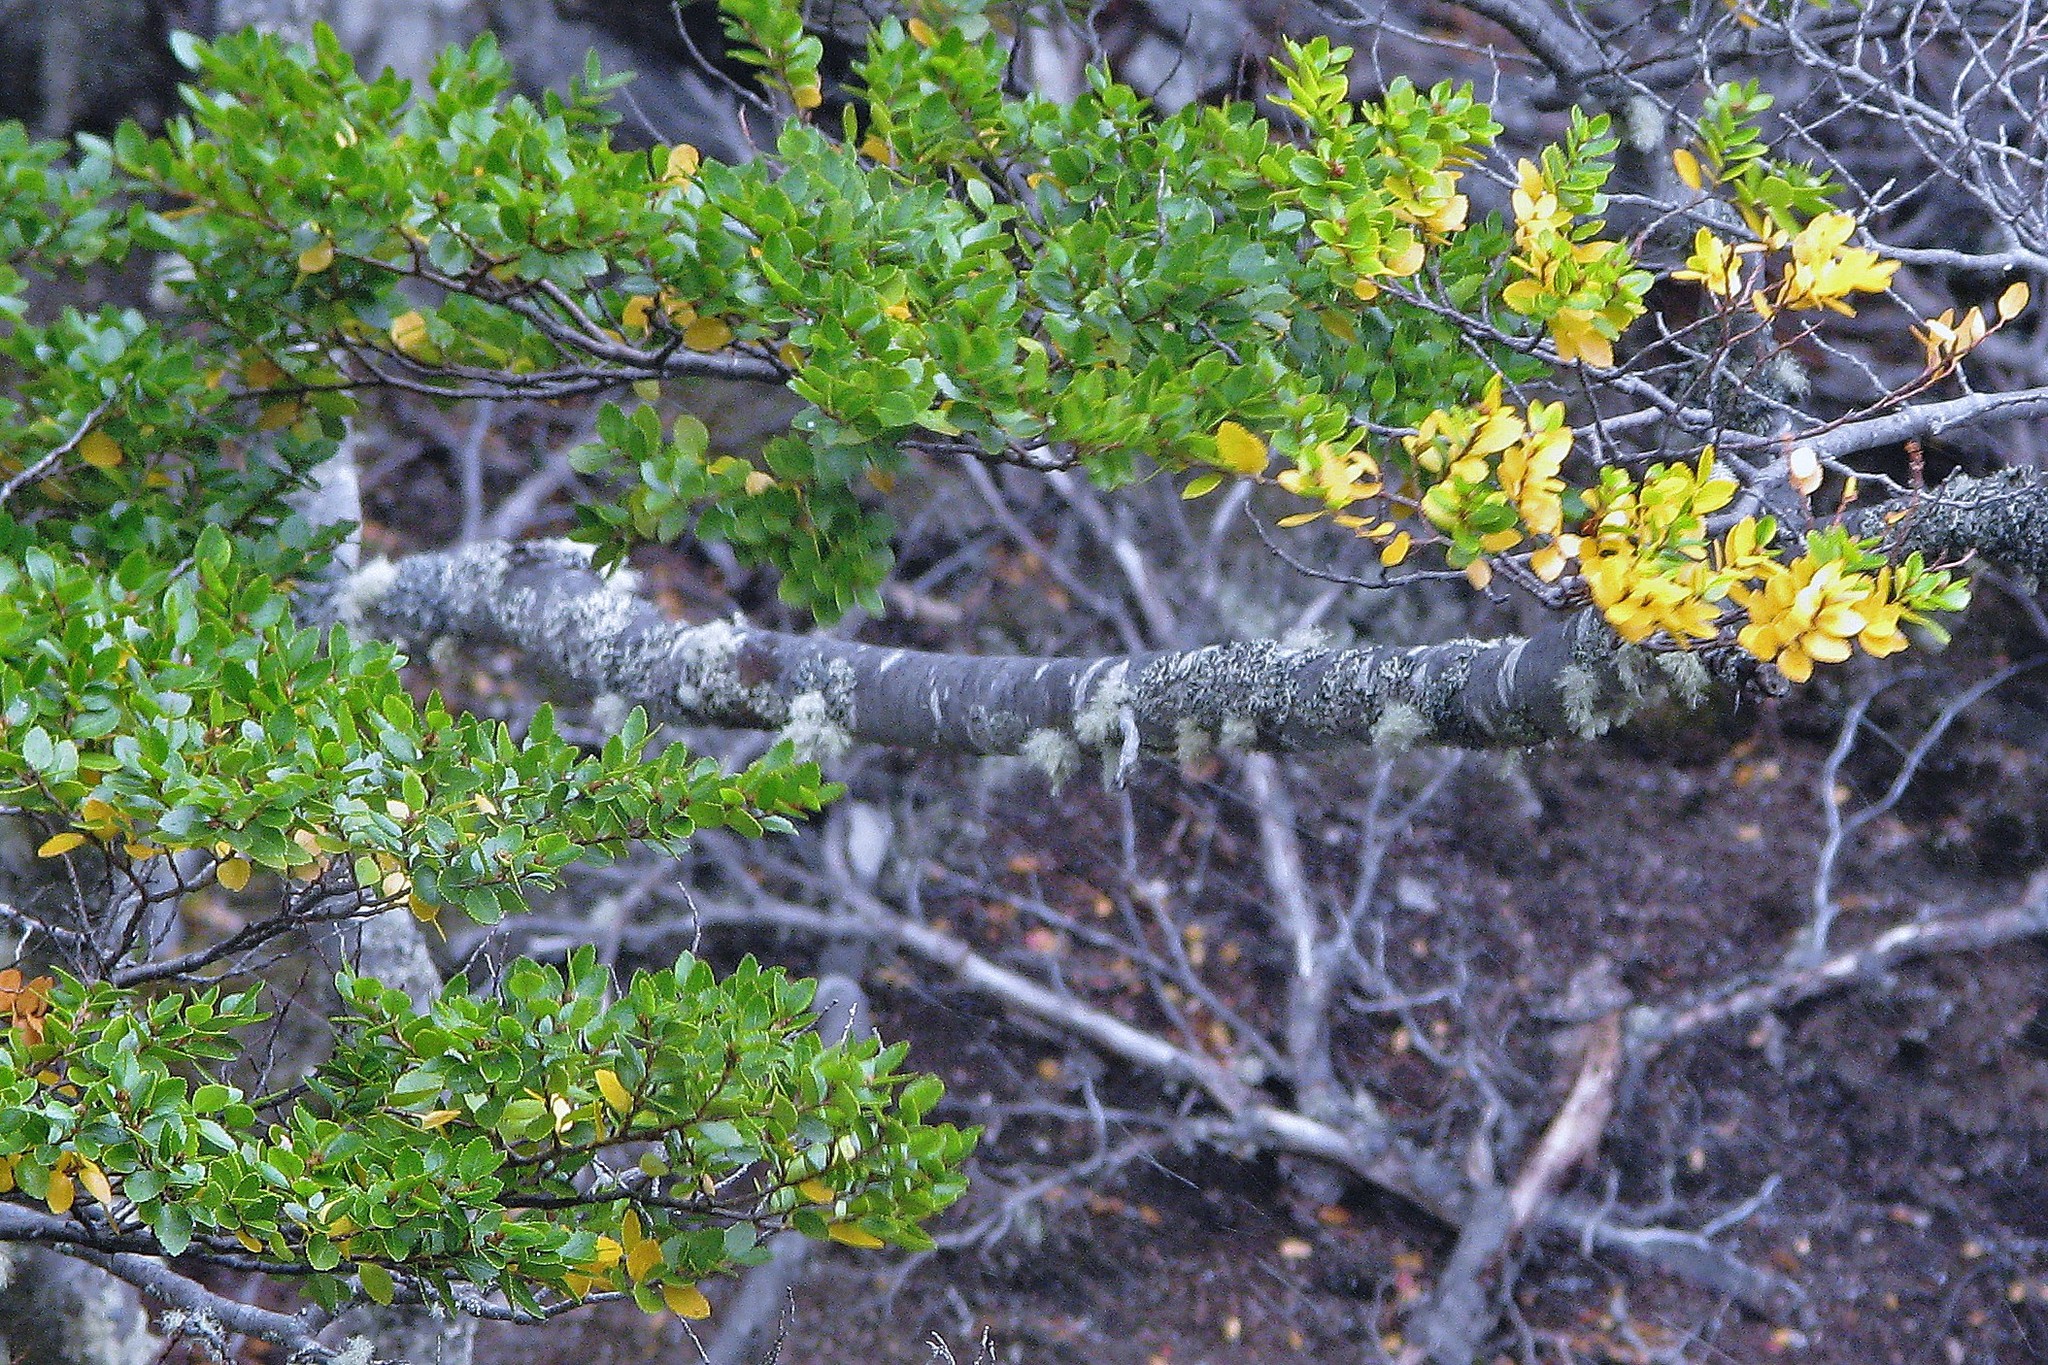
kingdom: Plantae
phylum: Tracheophyta
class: Magnoliopsida
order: Fagales
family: Nothofagaceae
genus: Nothofagus
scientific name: Nothofagus betuloides
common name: Magellan's beech
